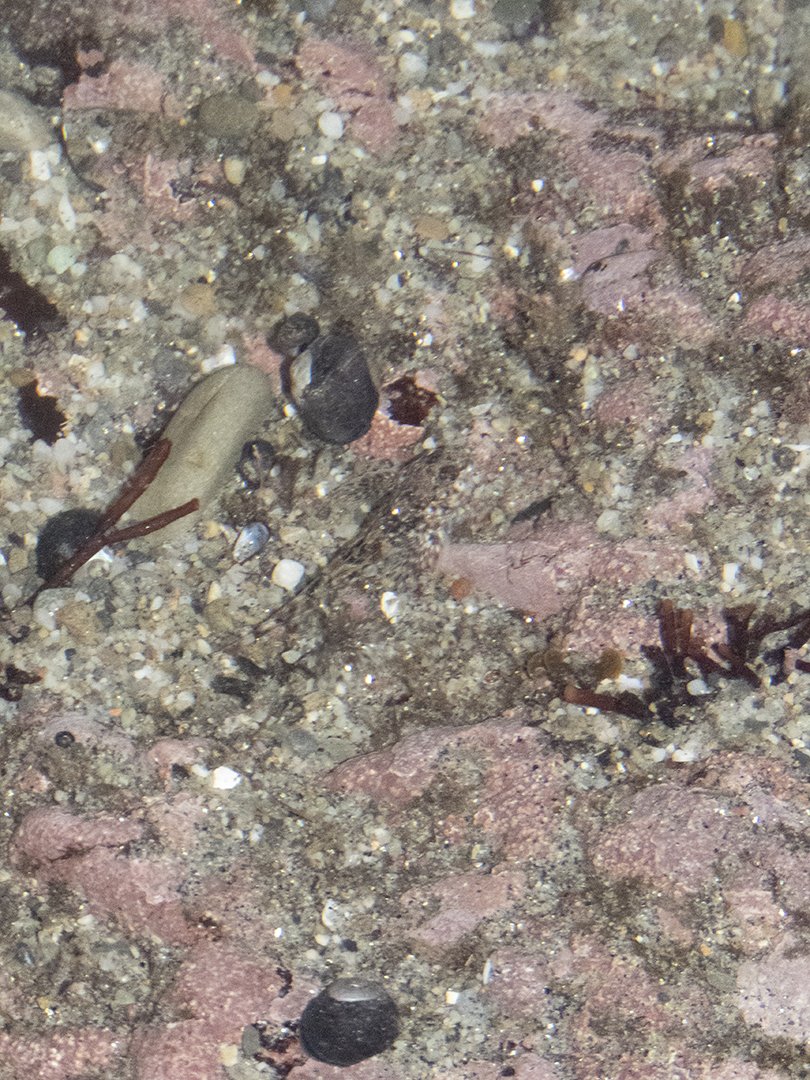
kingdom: Animalia
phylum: Chordata
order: Perciformes
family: Tripterygiidae
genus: Bellapiscis
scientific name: Bellapiscis medius
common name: Twister
